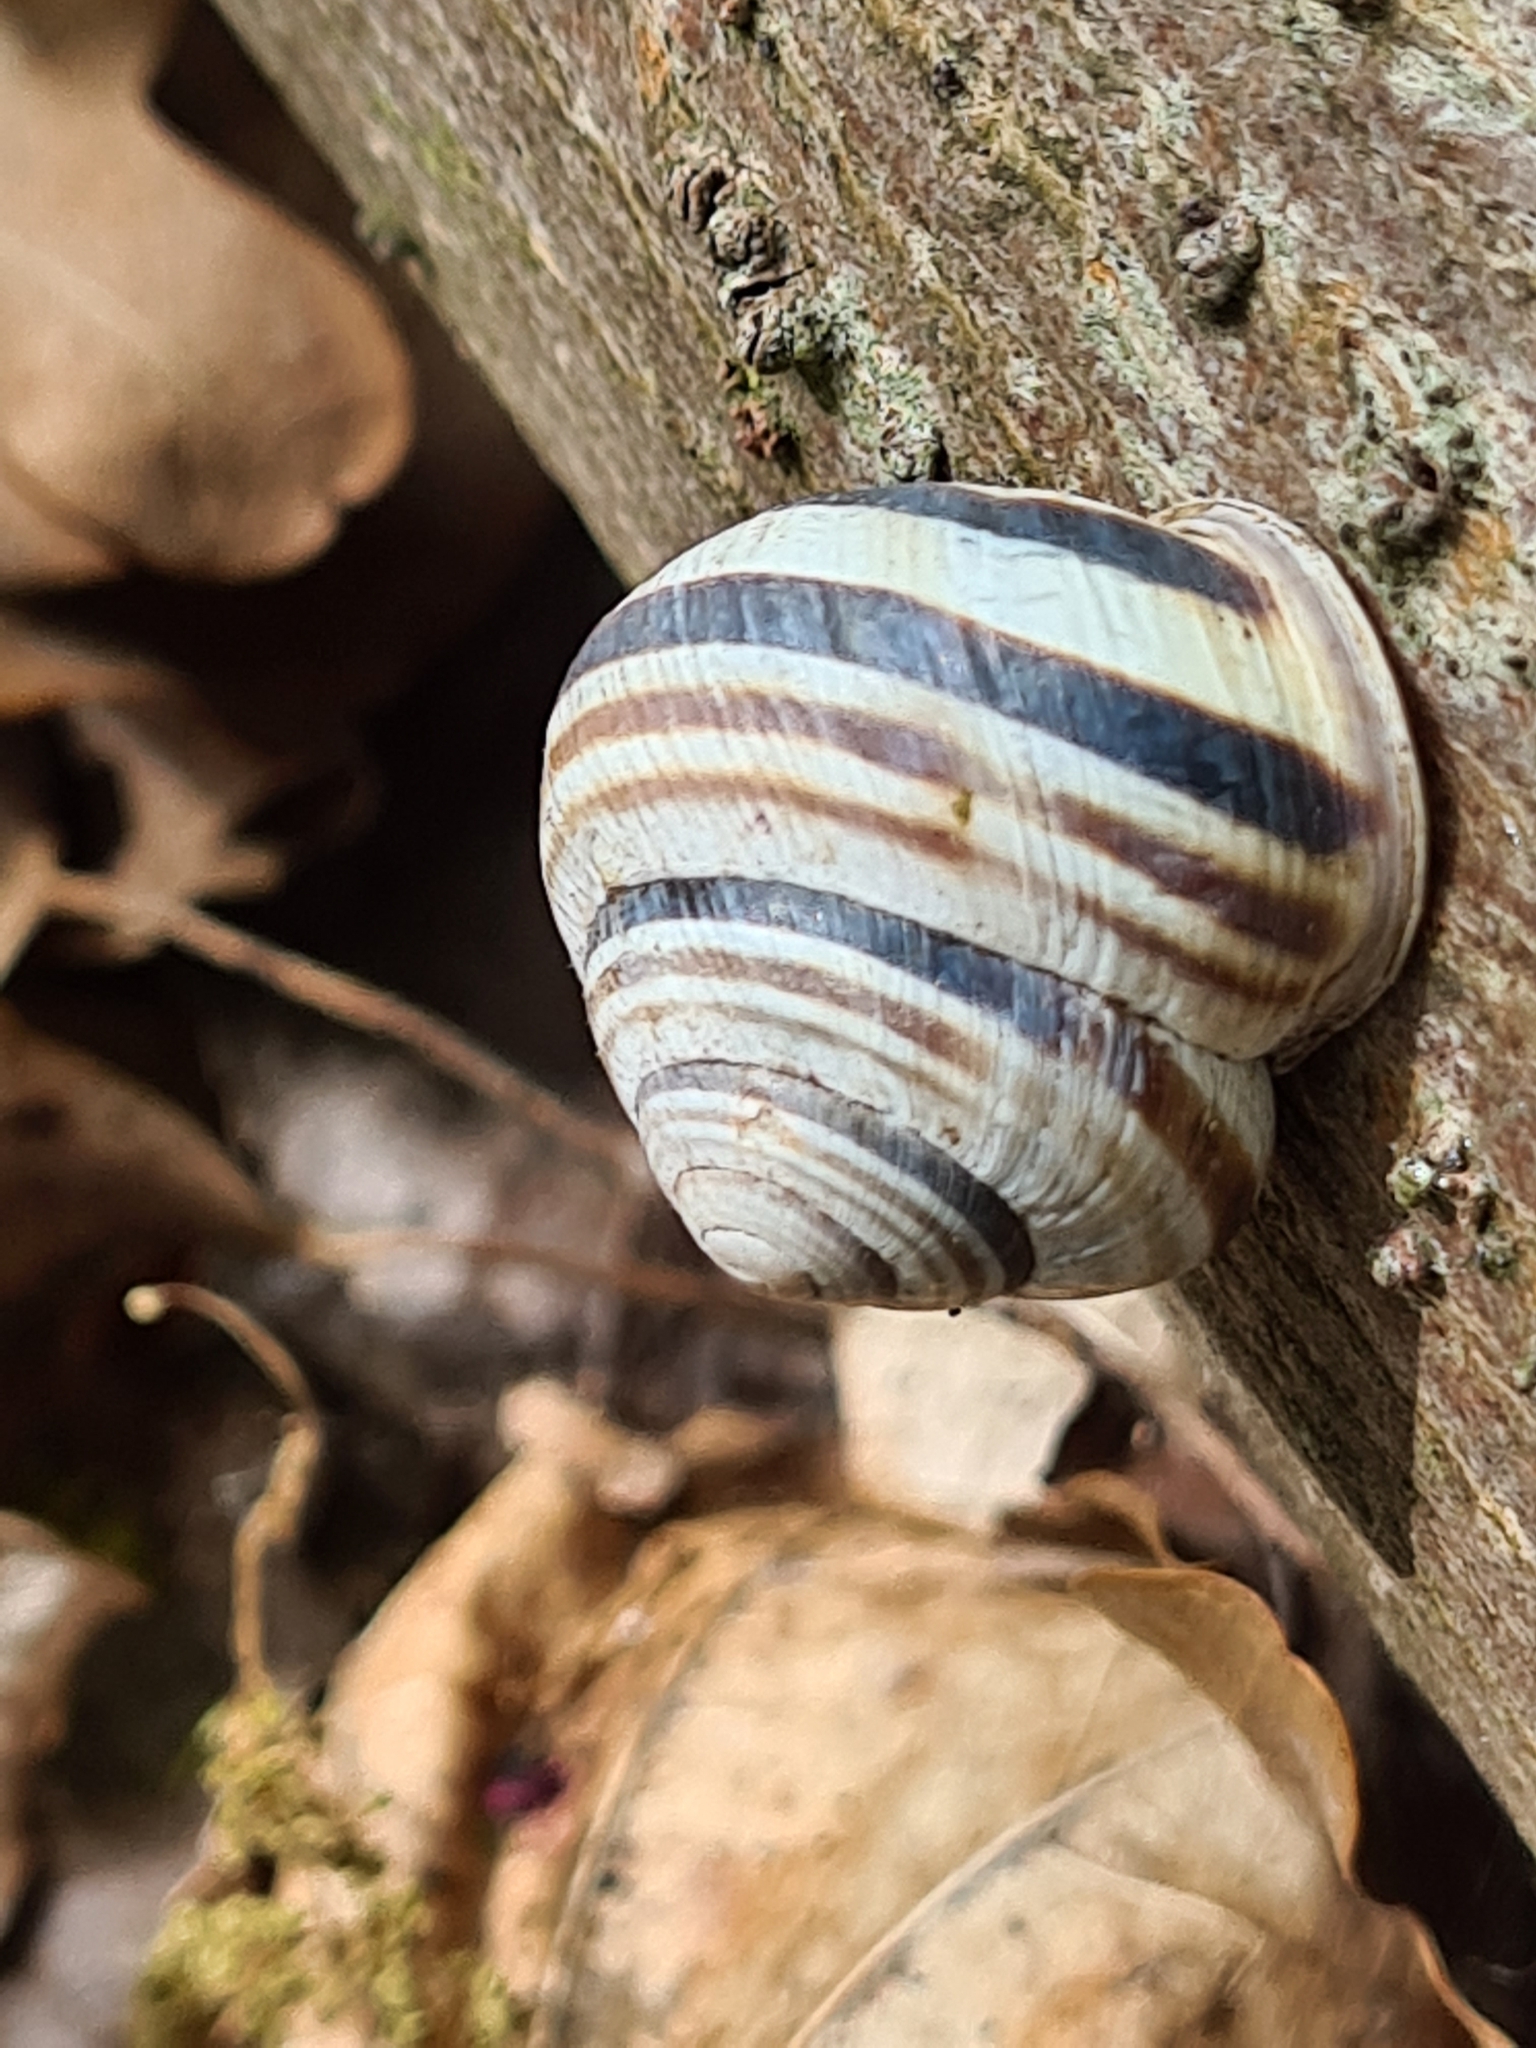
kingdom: Animalia
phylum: Mollusca
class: Gastropoda
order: Stylommatophora
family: Helicidae
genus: Caucasotachea
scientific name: Caucasotachea vindobonensis
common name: European helicid land snail
